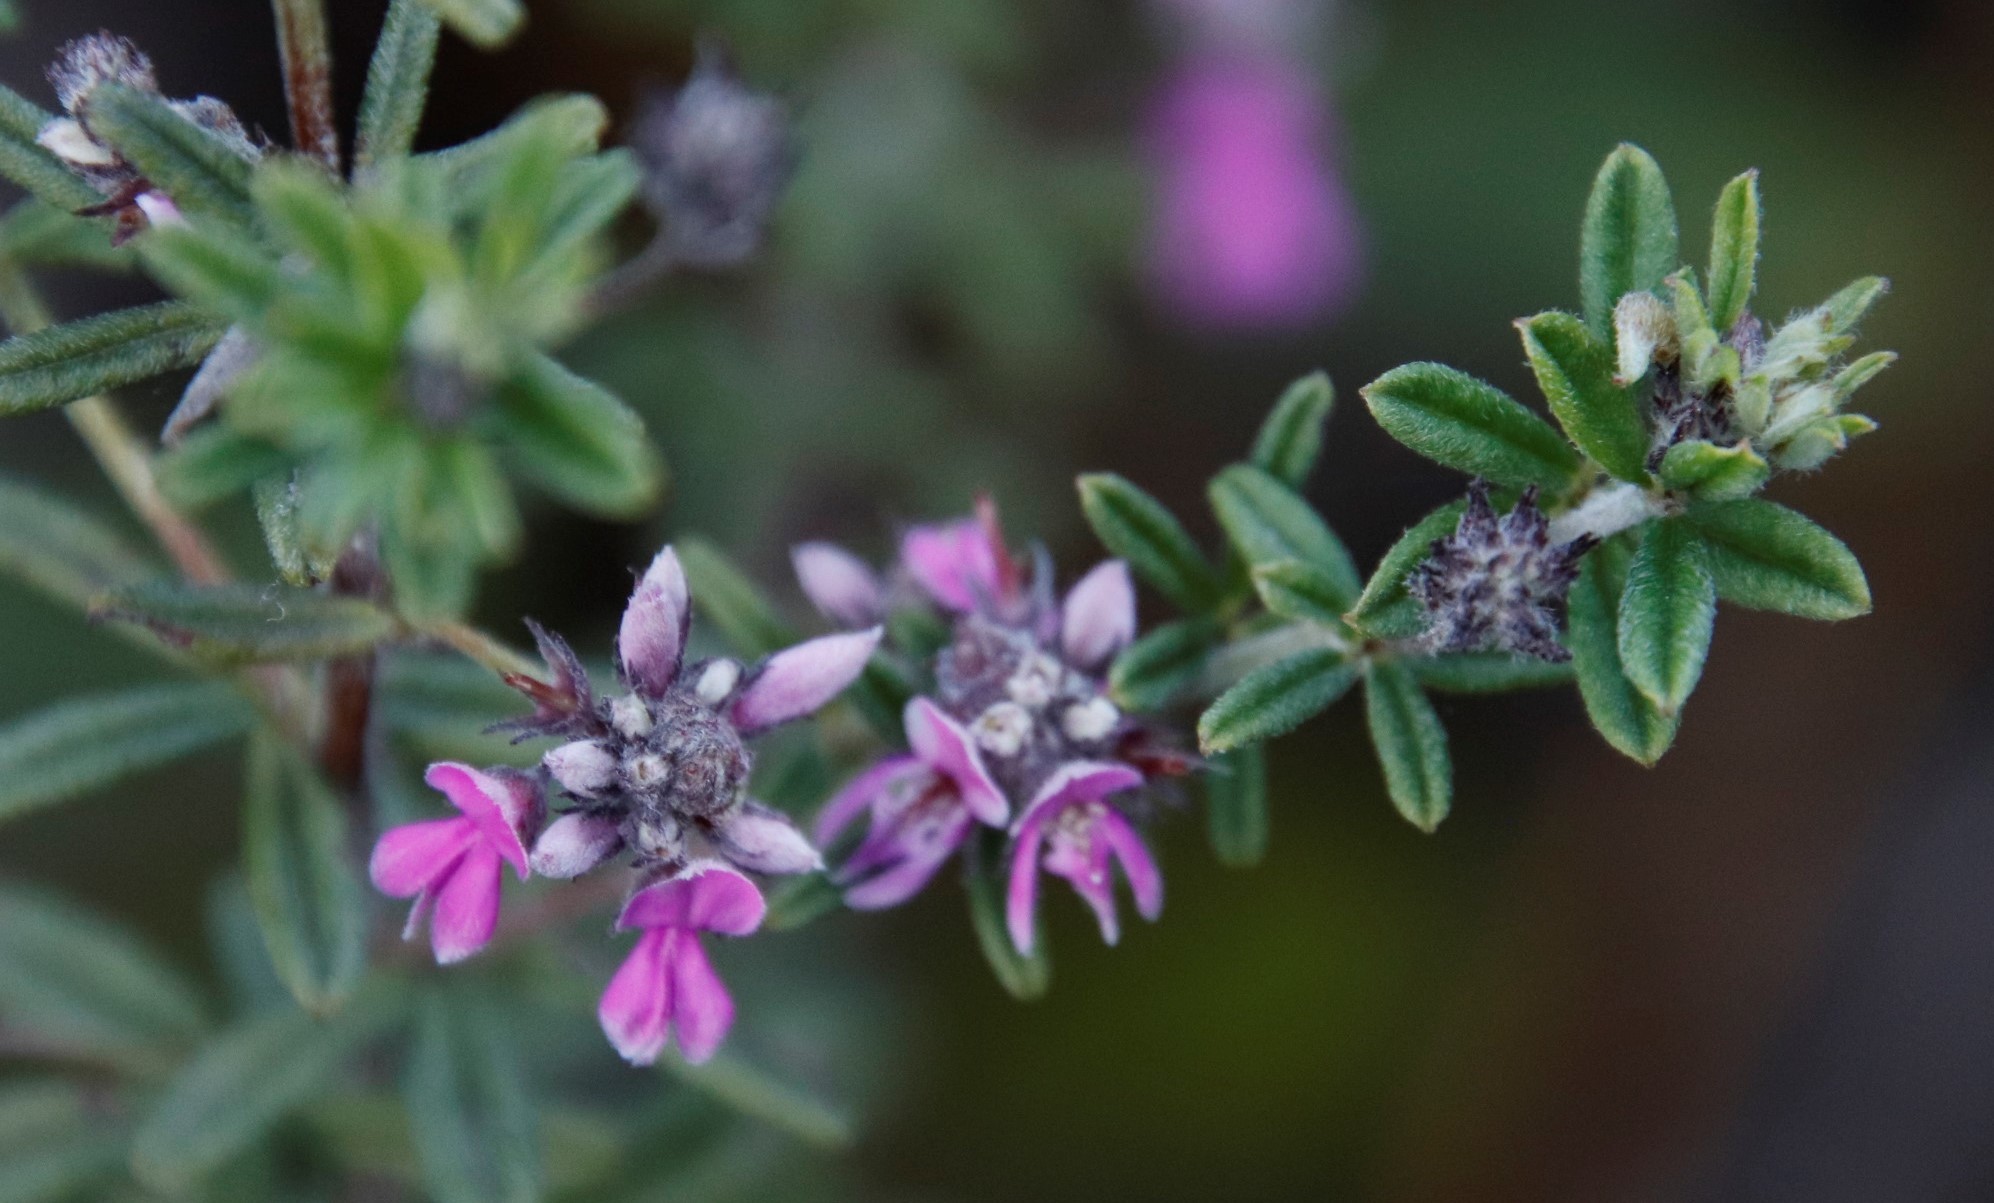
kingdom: Plantae
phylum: Tracheophyta
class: Magnoliopsida
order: Fabales
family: Fabaceae
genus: Indigofera
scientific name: Indigofera filiformis
